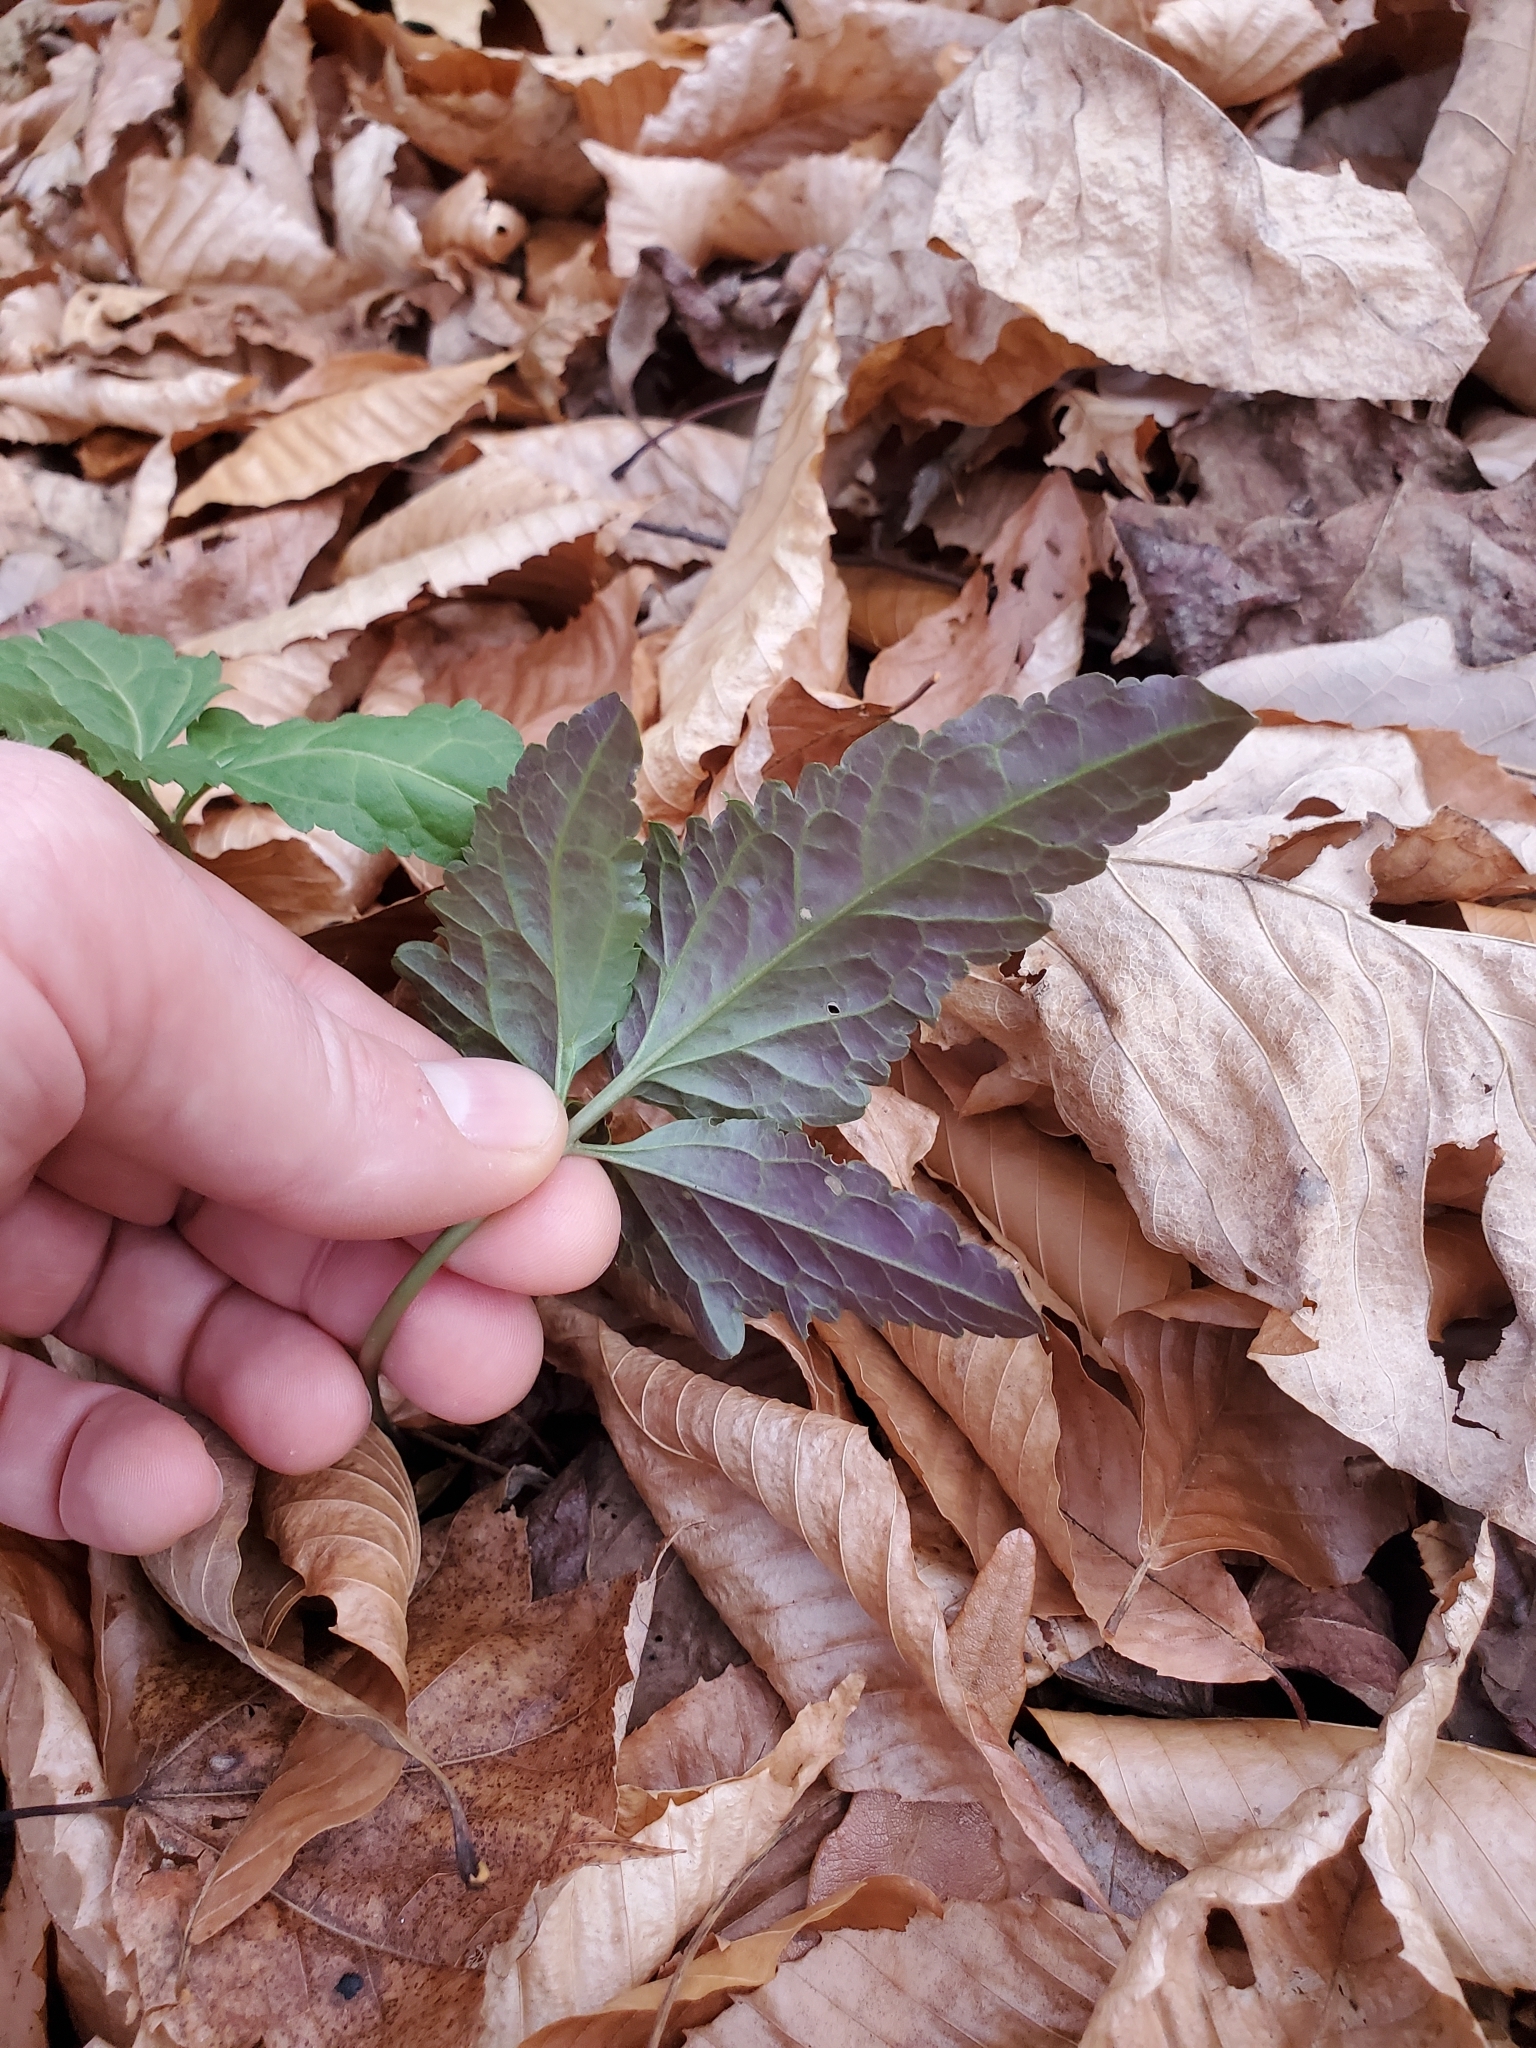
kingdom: Plantae
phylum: Tracheophyta
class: Magnoliopsida
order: Brassicales
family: Brassicaceae
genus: Cardamine
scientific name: Cardamine diphylla
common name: Broad-leaved toothwort
